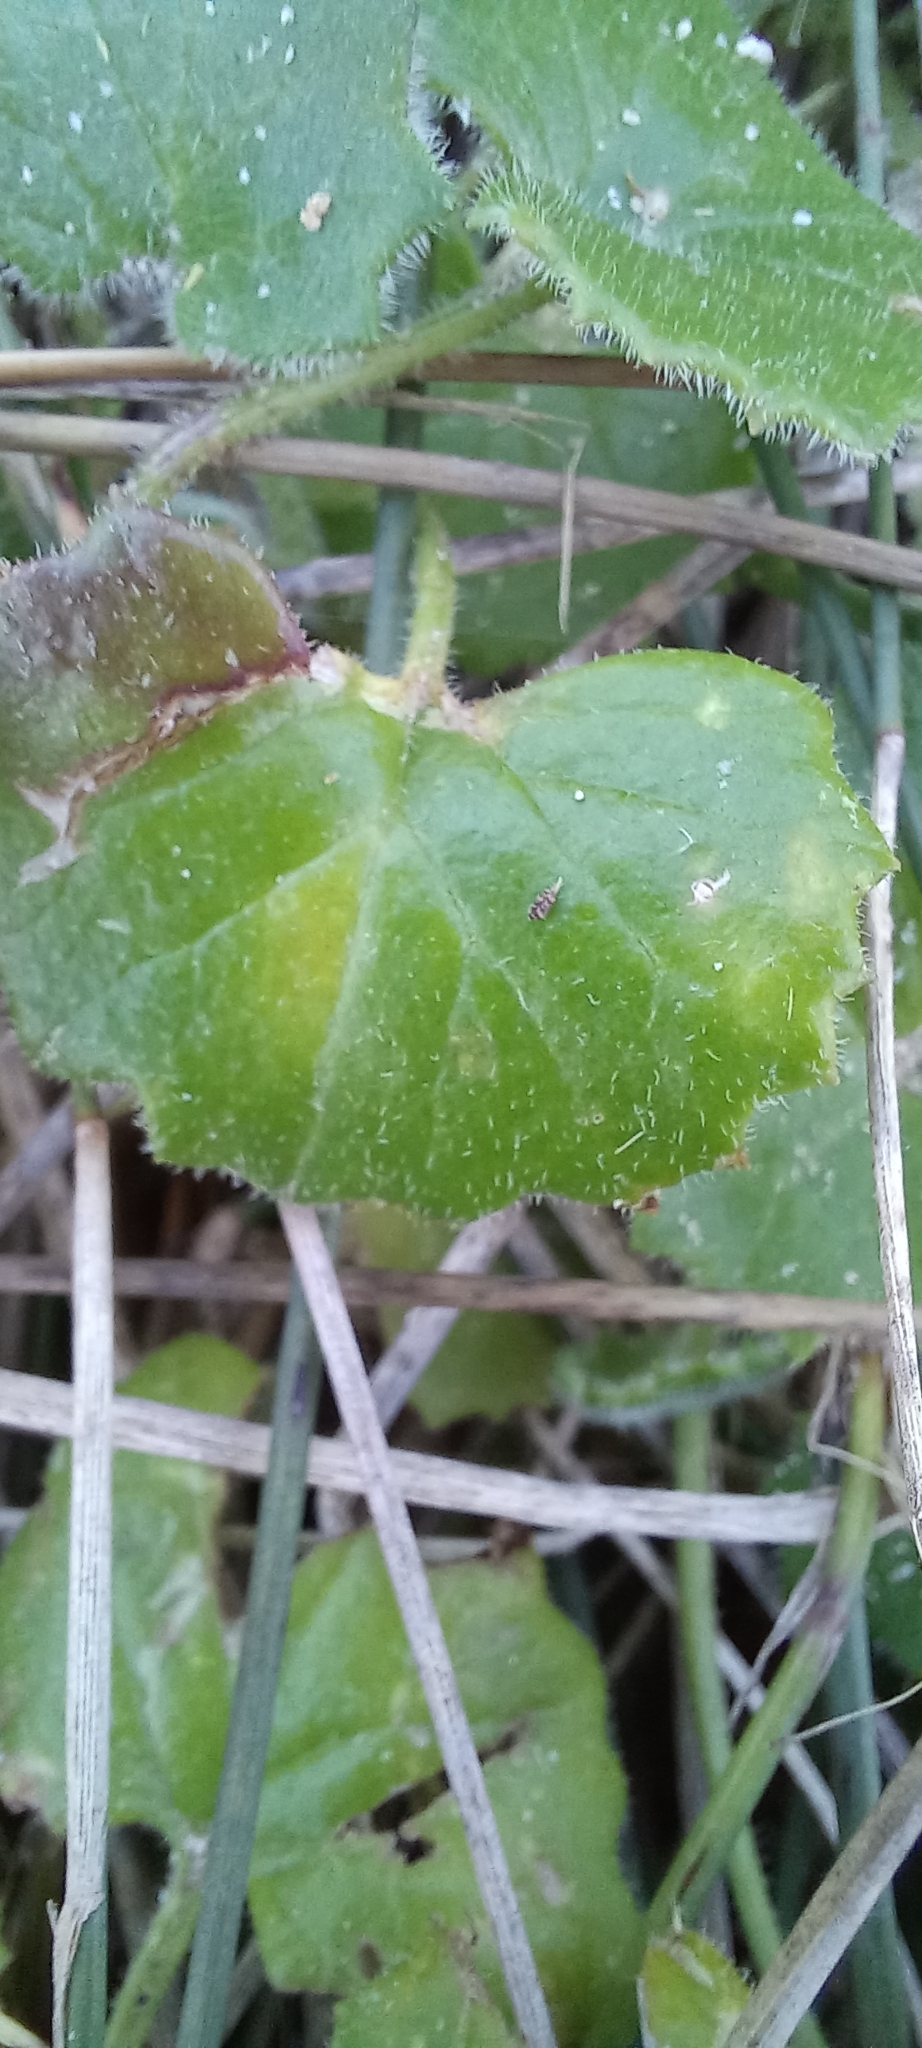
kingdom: Plantae
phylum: Tracheophyta
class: Magnoliopsida
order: Asterales
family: Asteraceae
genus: Cineraria
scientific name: Cineraria geifolia
